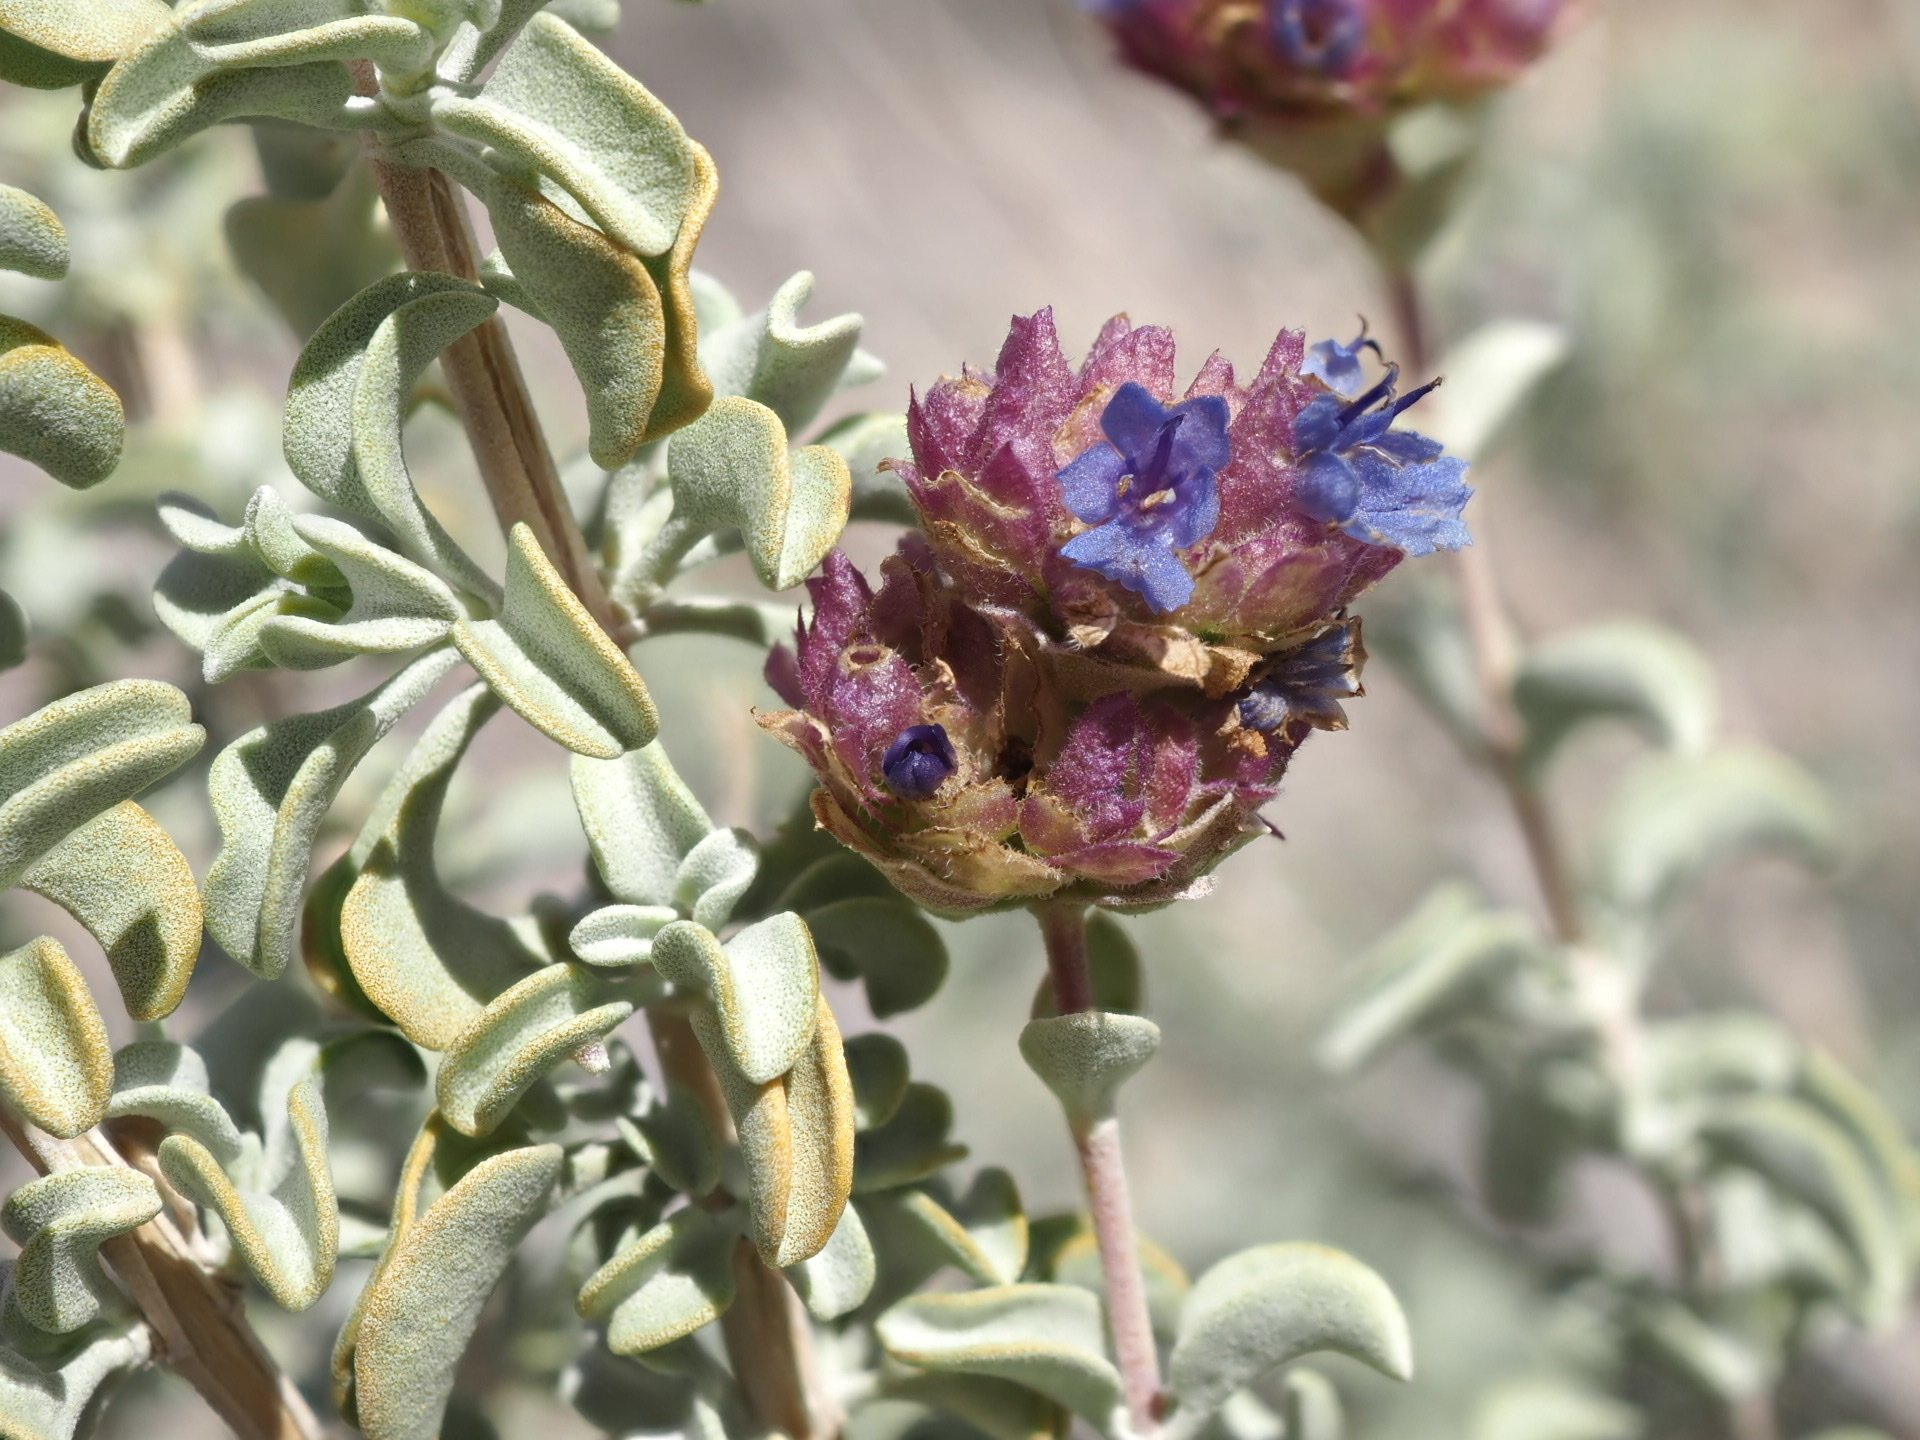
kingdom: Plantae
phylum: Tracheophyta
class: Magnoliopsida
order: Lamiales
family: Lamiaceae
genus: Salvia
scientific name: Salvia dorrii
